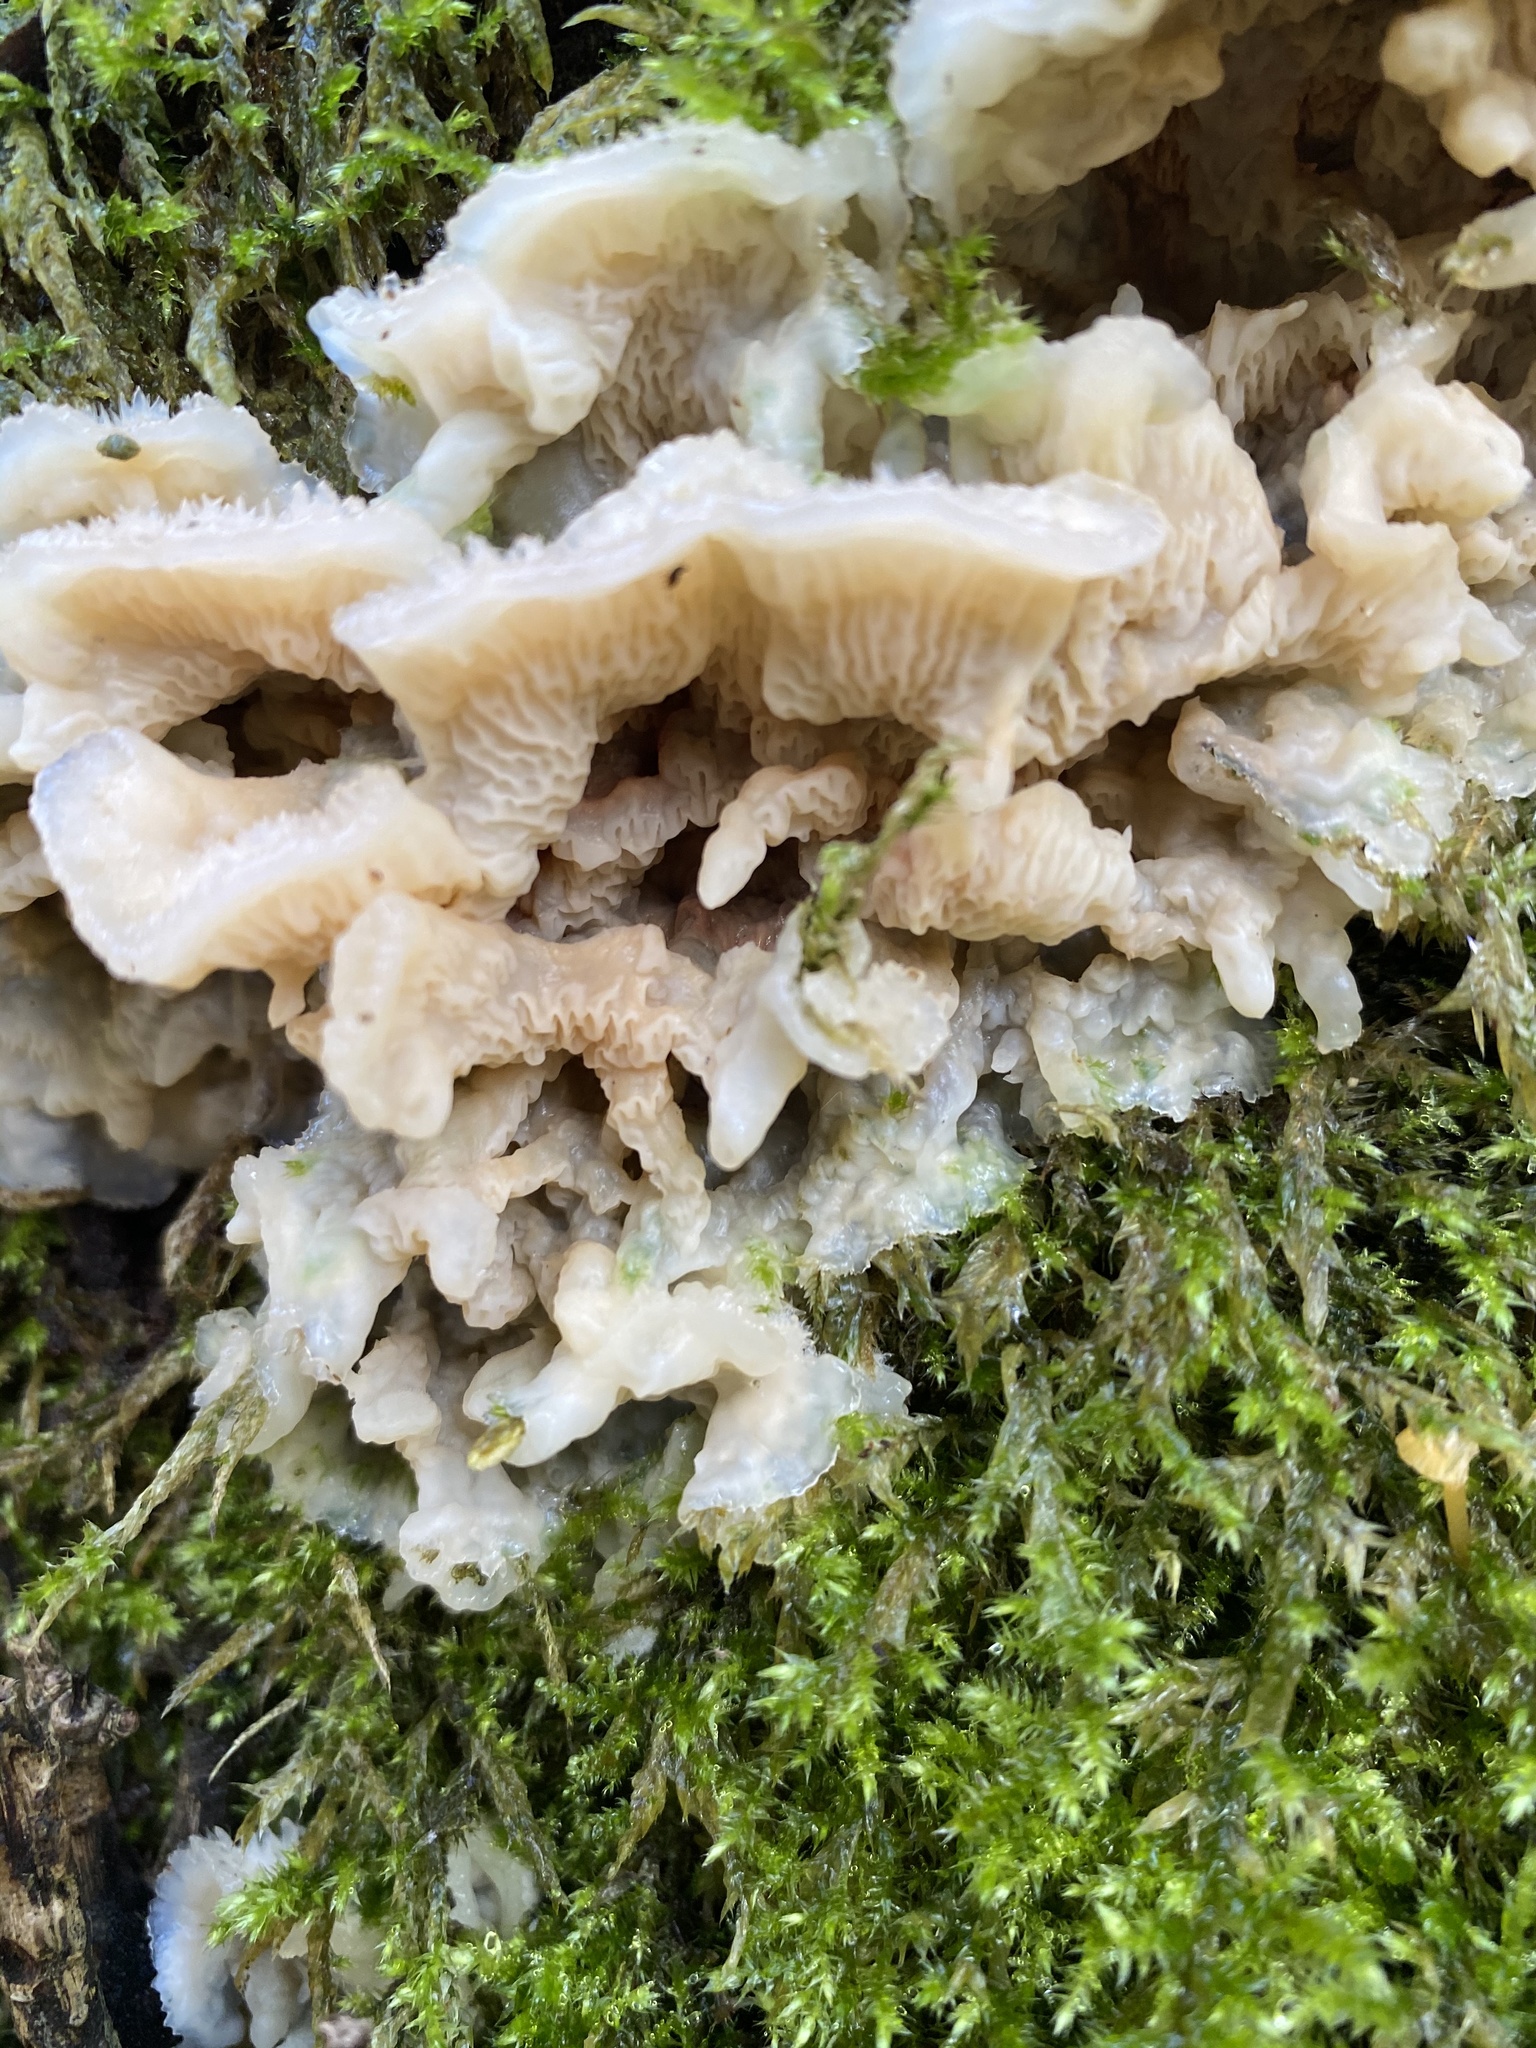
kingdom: Fungi
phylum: Basidiomycota
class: Agaricomycetes
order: Polyporales
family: Meruliaceae
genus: Phlebia
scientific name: Phlebia tremellosa
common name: Jelly rot
